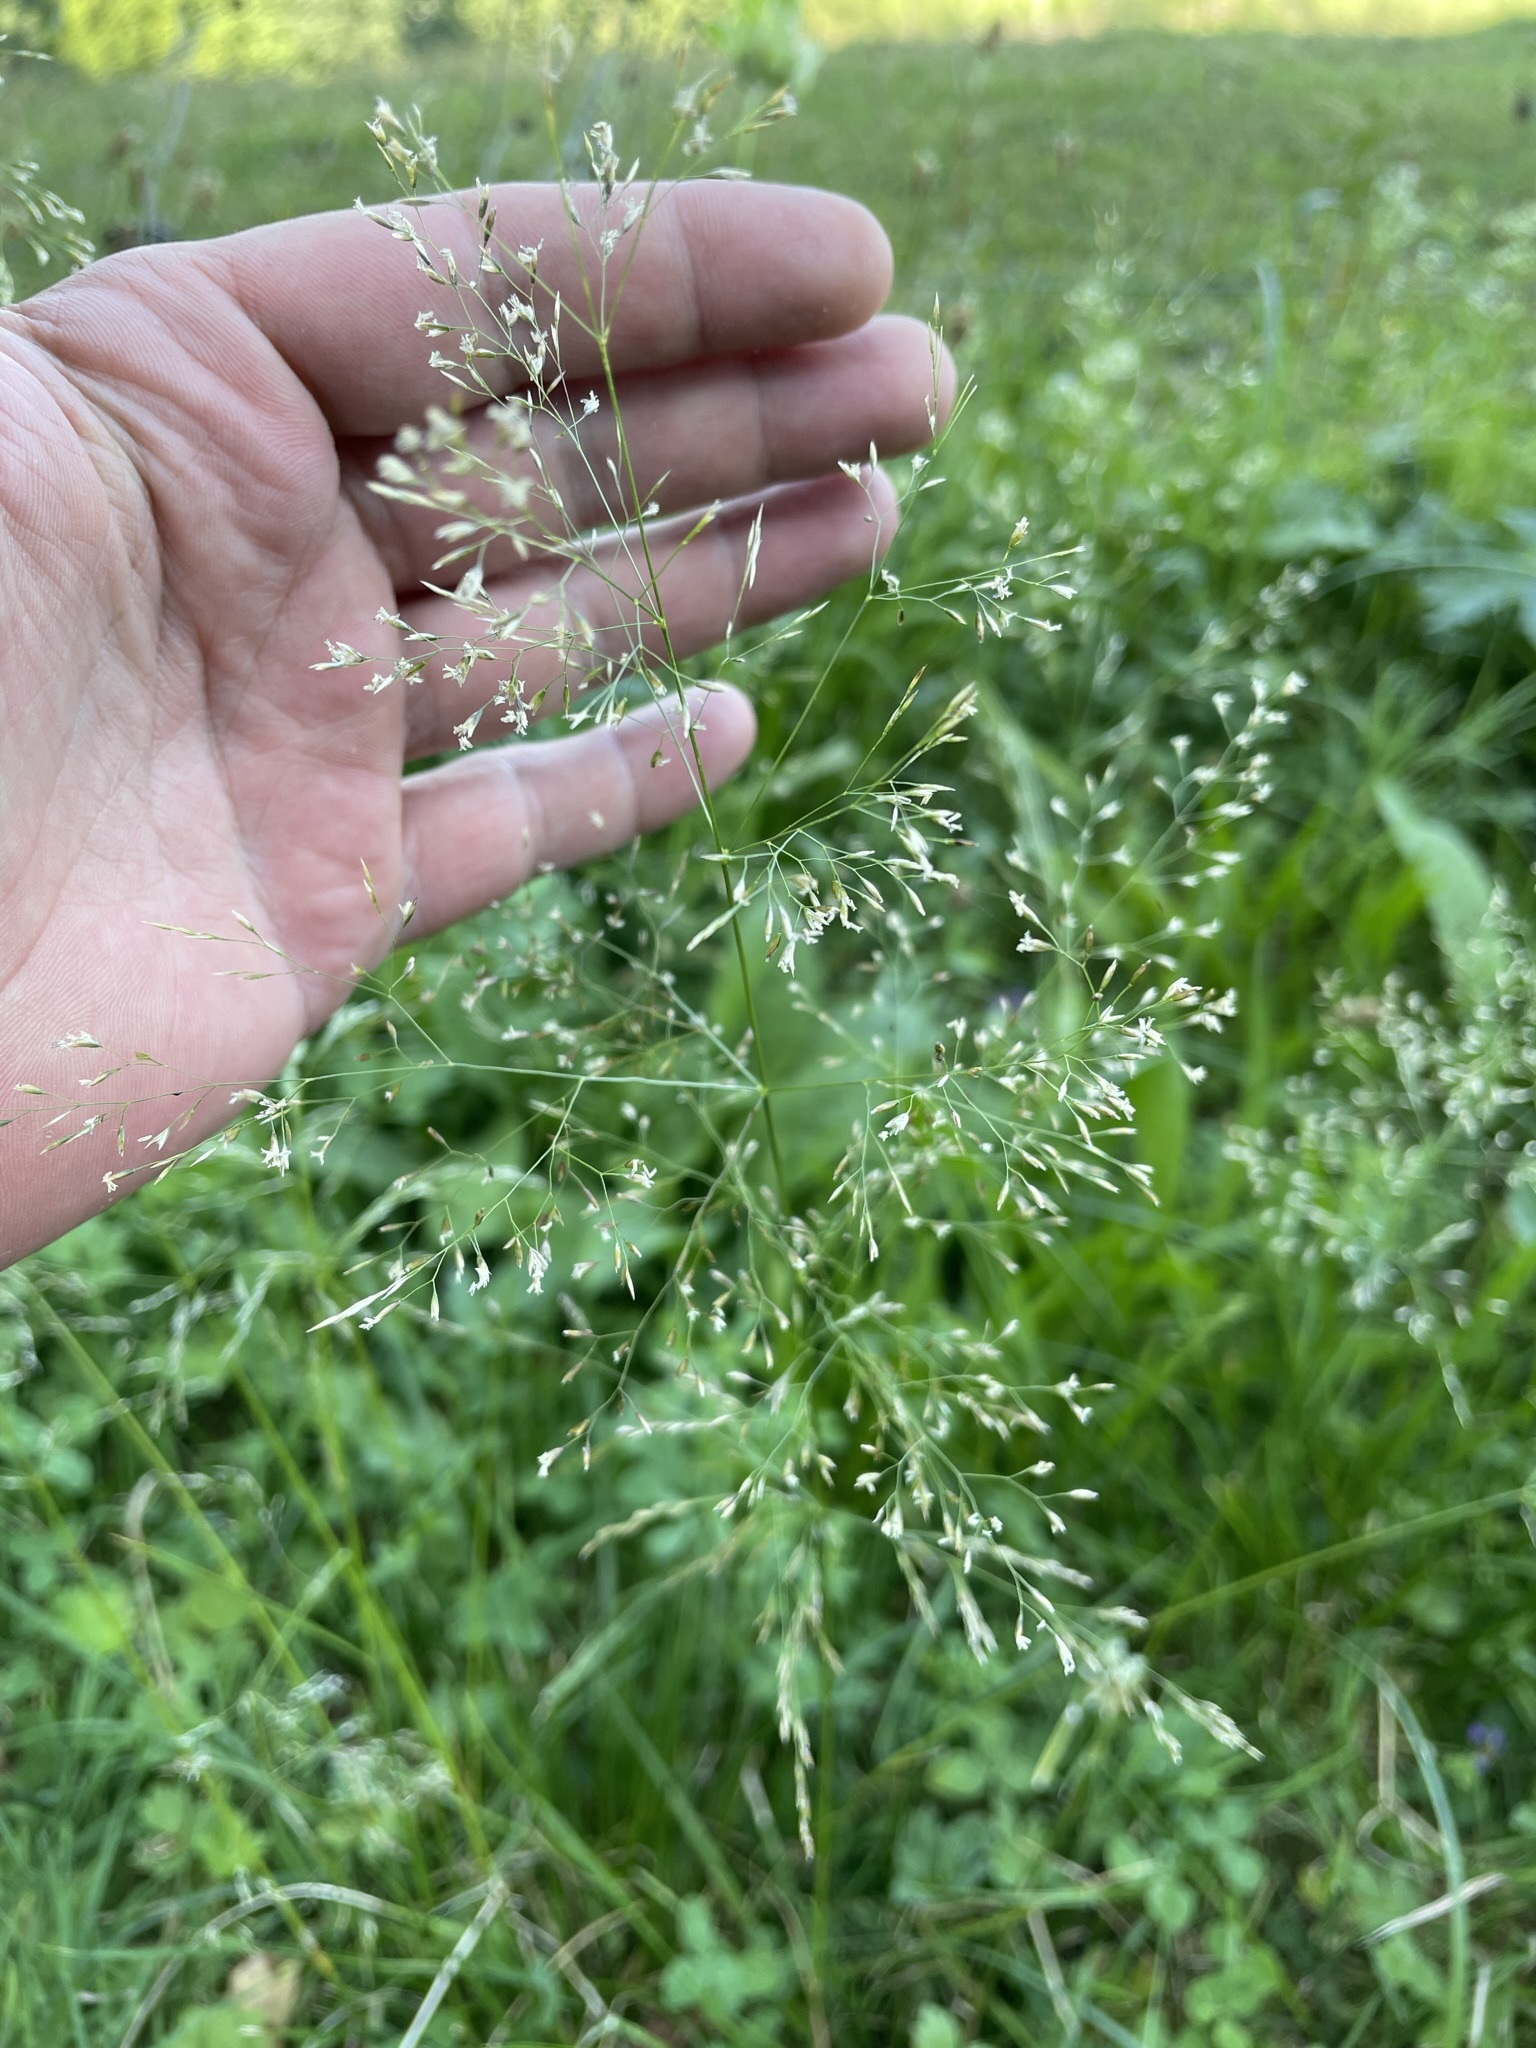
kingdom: Plantae
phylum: Tracheophyta
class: Liliopsida
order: Poales
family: Poaceae
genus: Deschampsia
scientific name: Deschampsia cespitosa
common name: Tufted hair-grass
